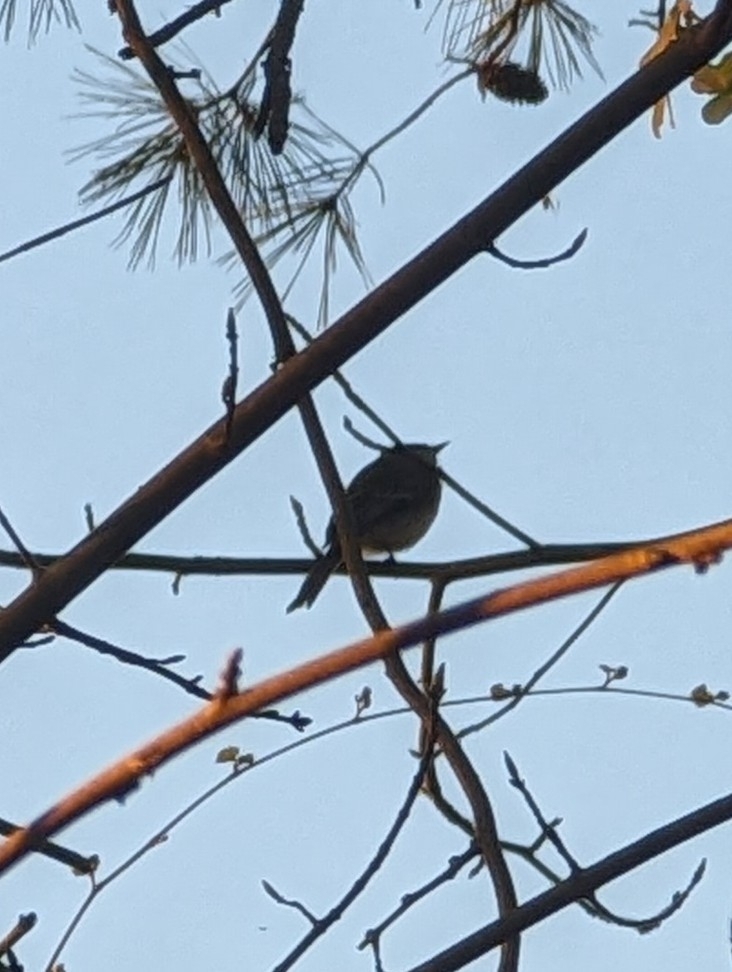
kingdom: Animalia
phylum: Chordata
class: Aves
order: Passeriformes
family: Tyrannidae
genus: Sayornis
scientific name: Sayornis phoebe
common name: Eastern phoebe
